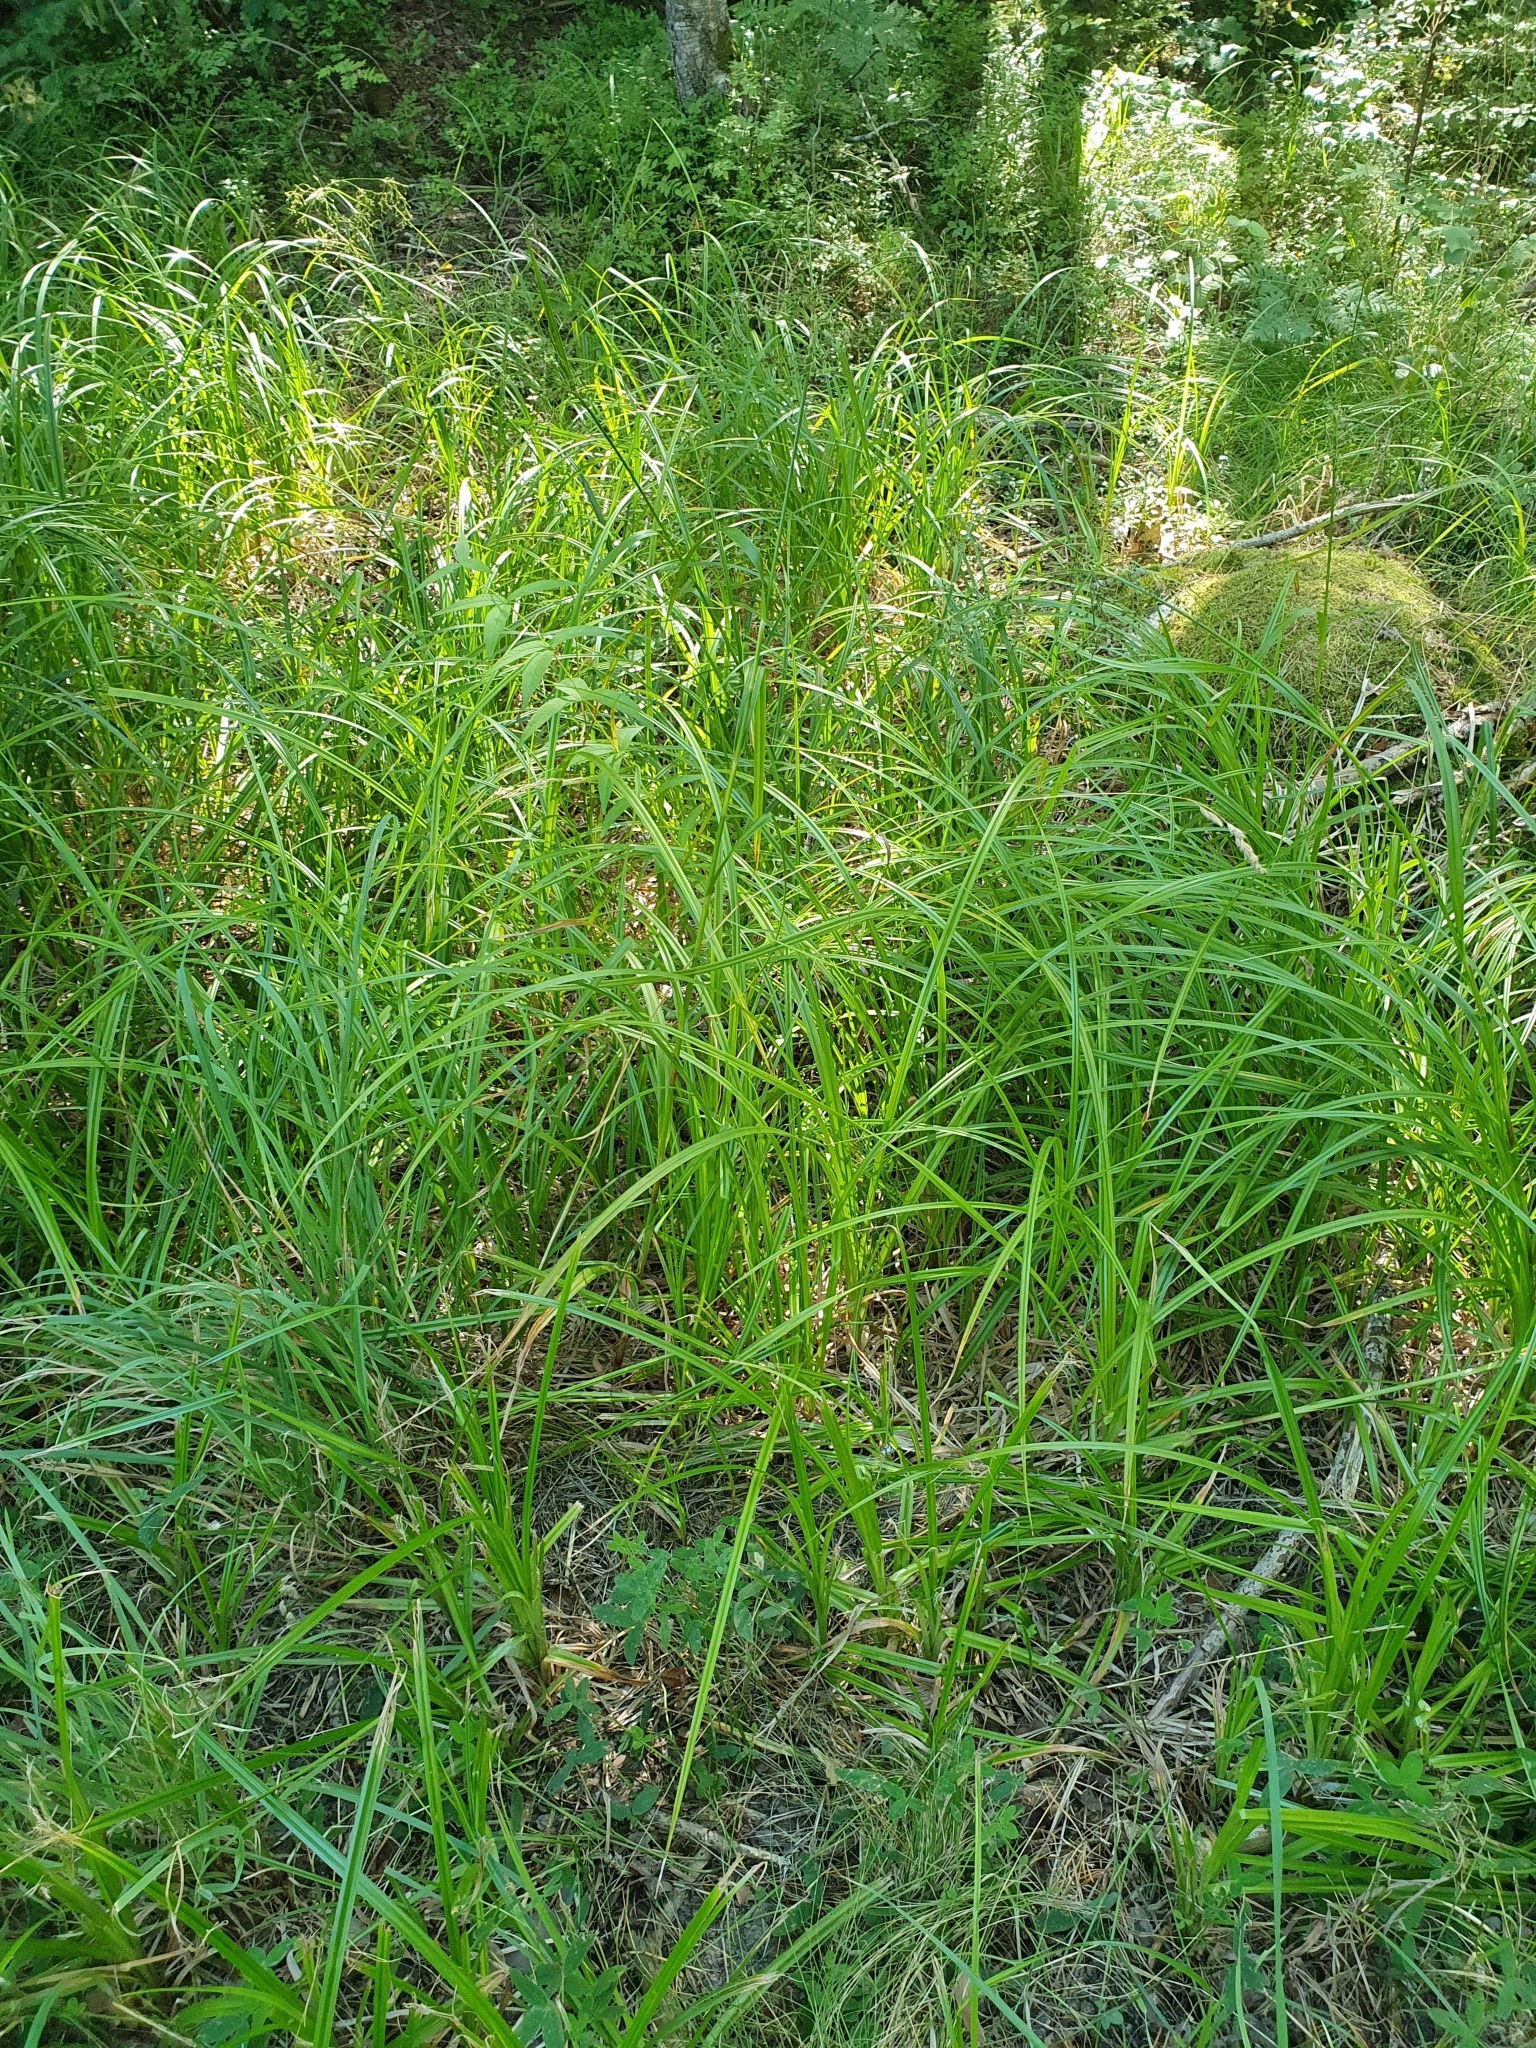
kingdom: Plantae
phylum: Tracheophyta
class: Liliopsida
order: Poales
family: Cyperaceae
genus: Scirpus
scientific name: Scirpus sylvaticus
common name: Wood club-rush
